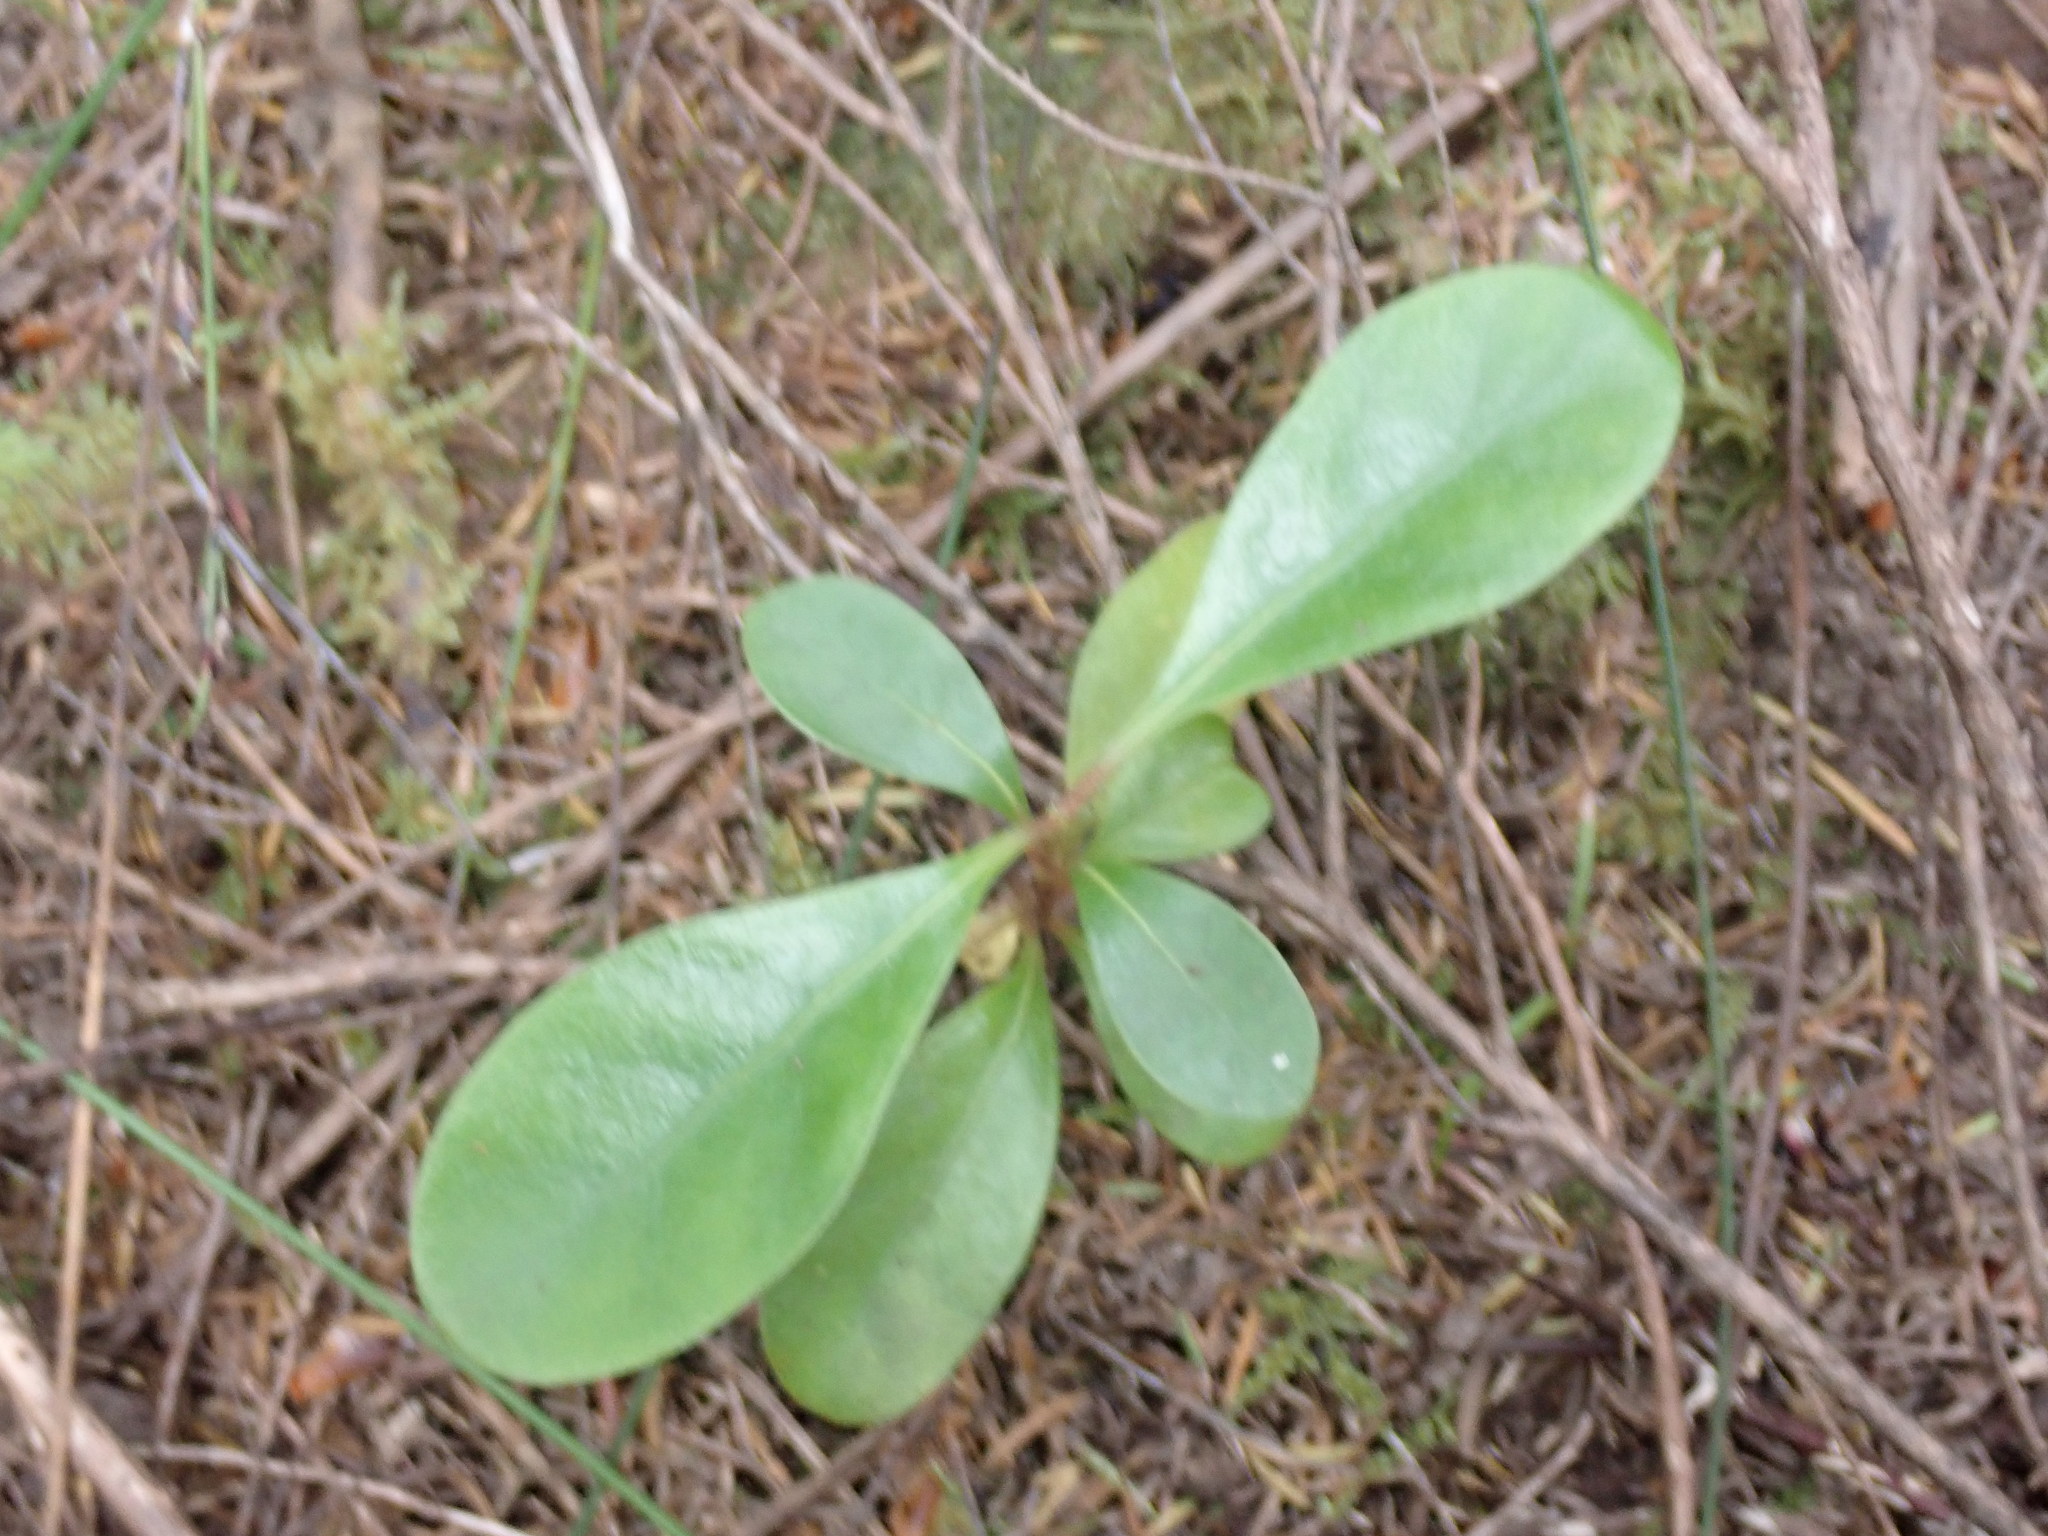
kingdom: Plantae
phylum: Tracheophyta
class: Magnoliopsida
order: Gentianales
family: Rubiaceae
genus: Coprosma
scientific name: Coprosma lucida
